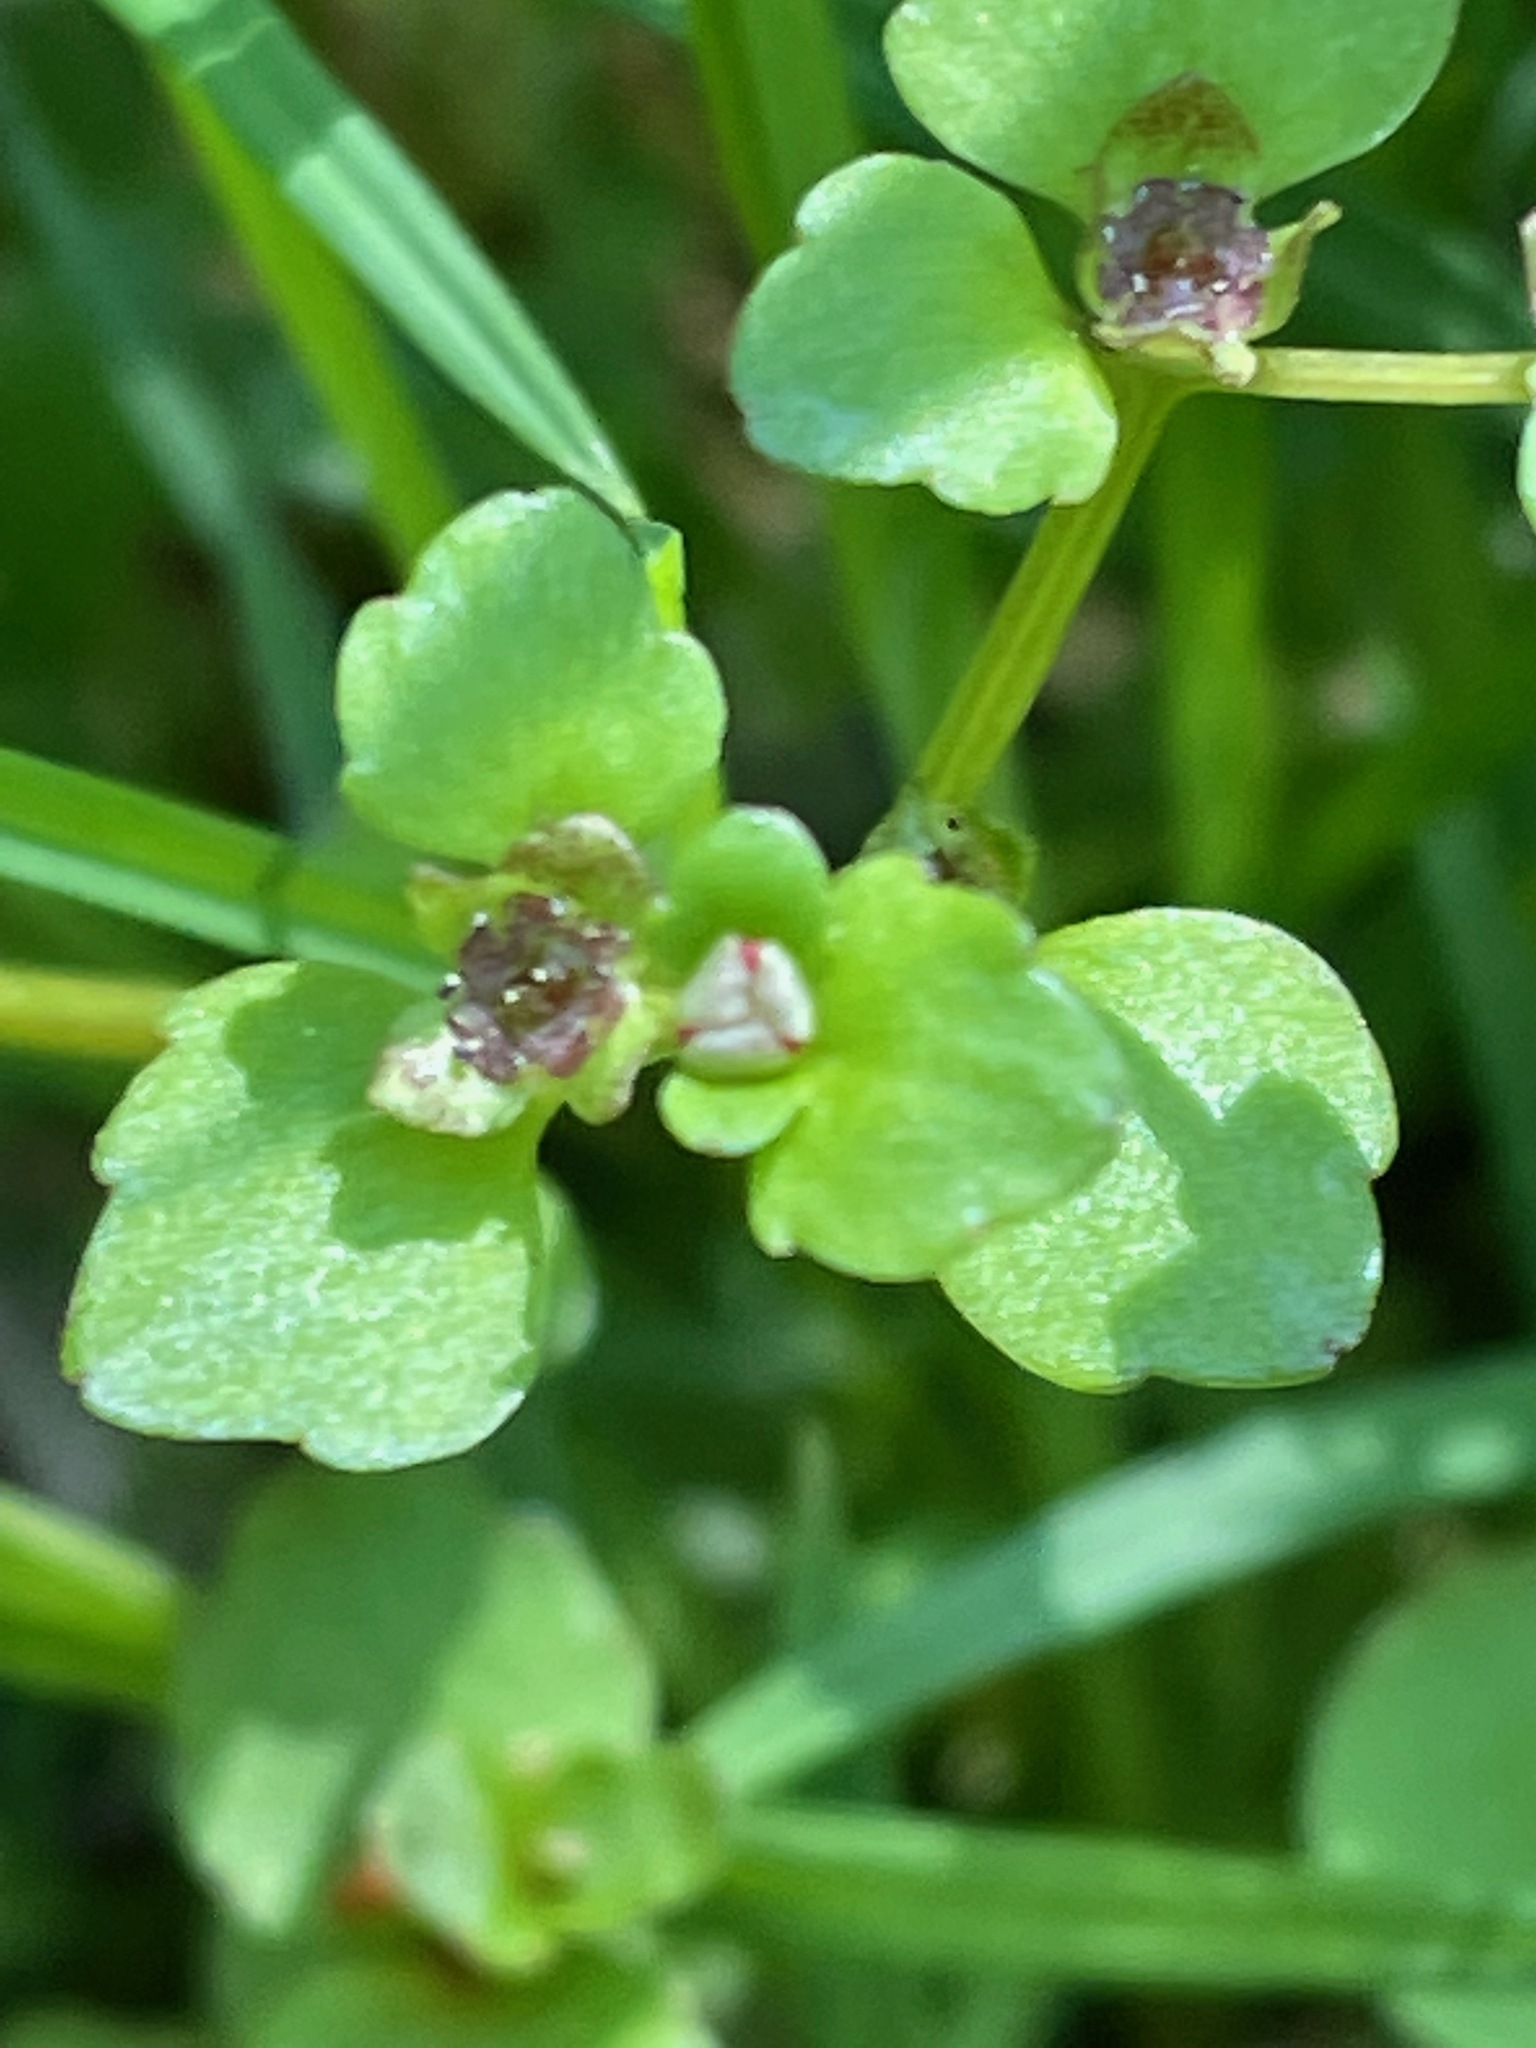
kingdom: Plantae
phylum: Tracheophyta
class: Magnoliopsida
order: Saxifragales
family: Saxifragaceae
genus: Chrysosplenium
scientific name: Chrysosplenium americanum
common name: American golden-saxifrage
